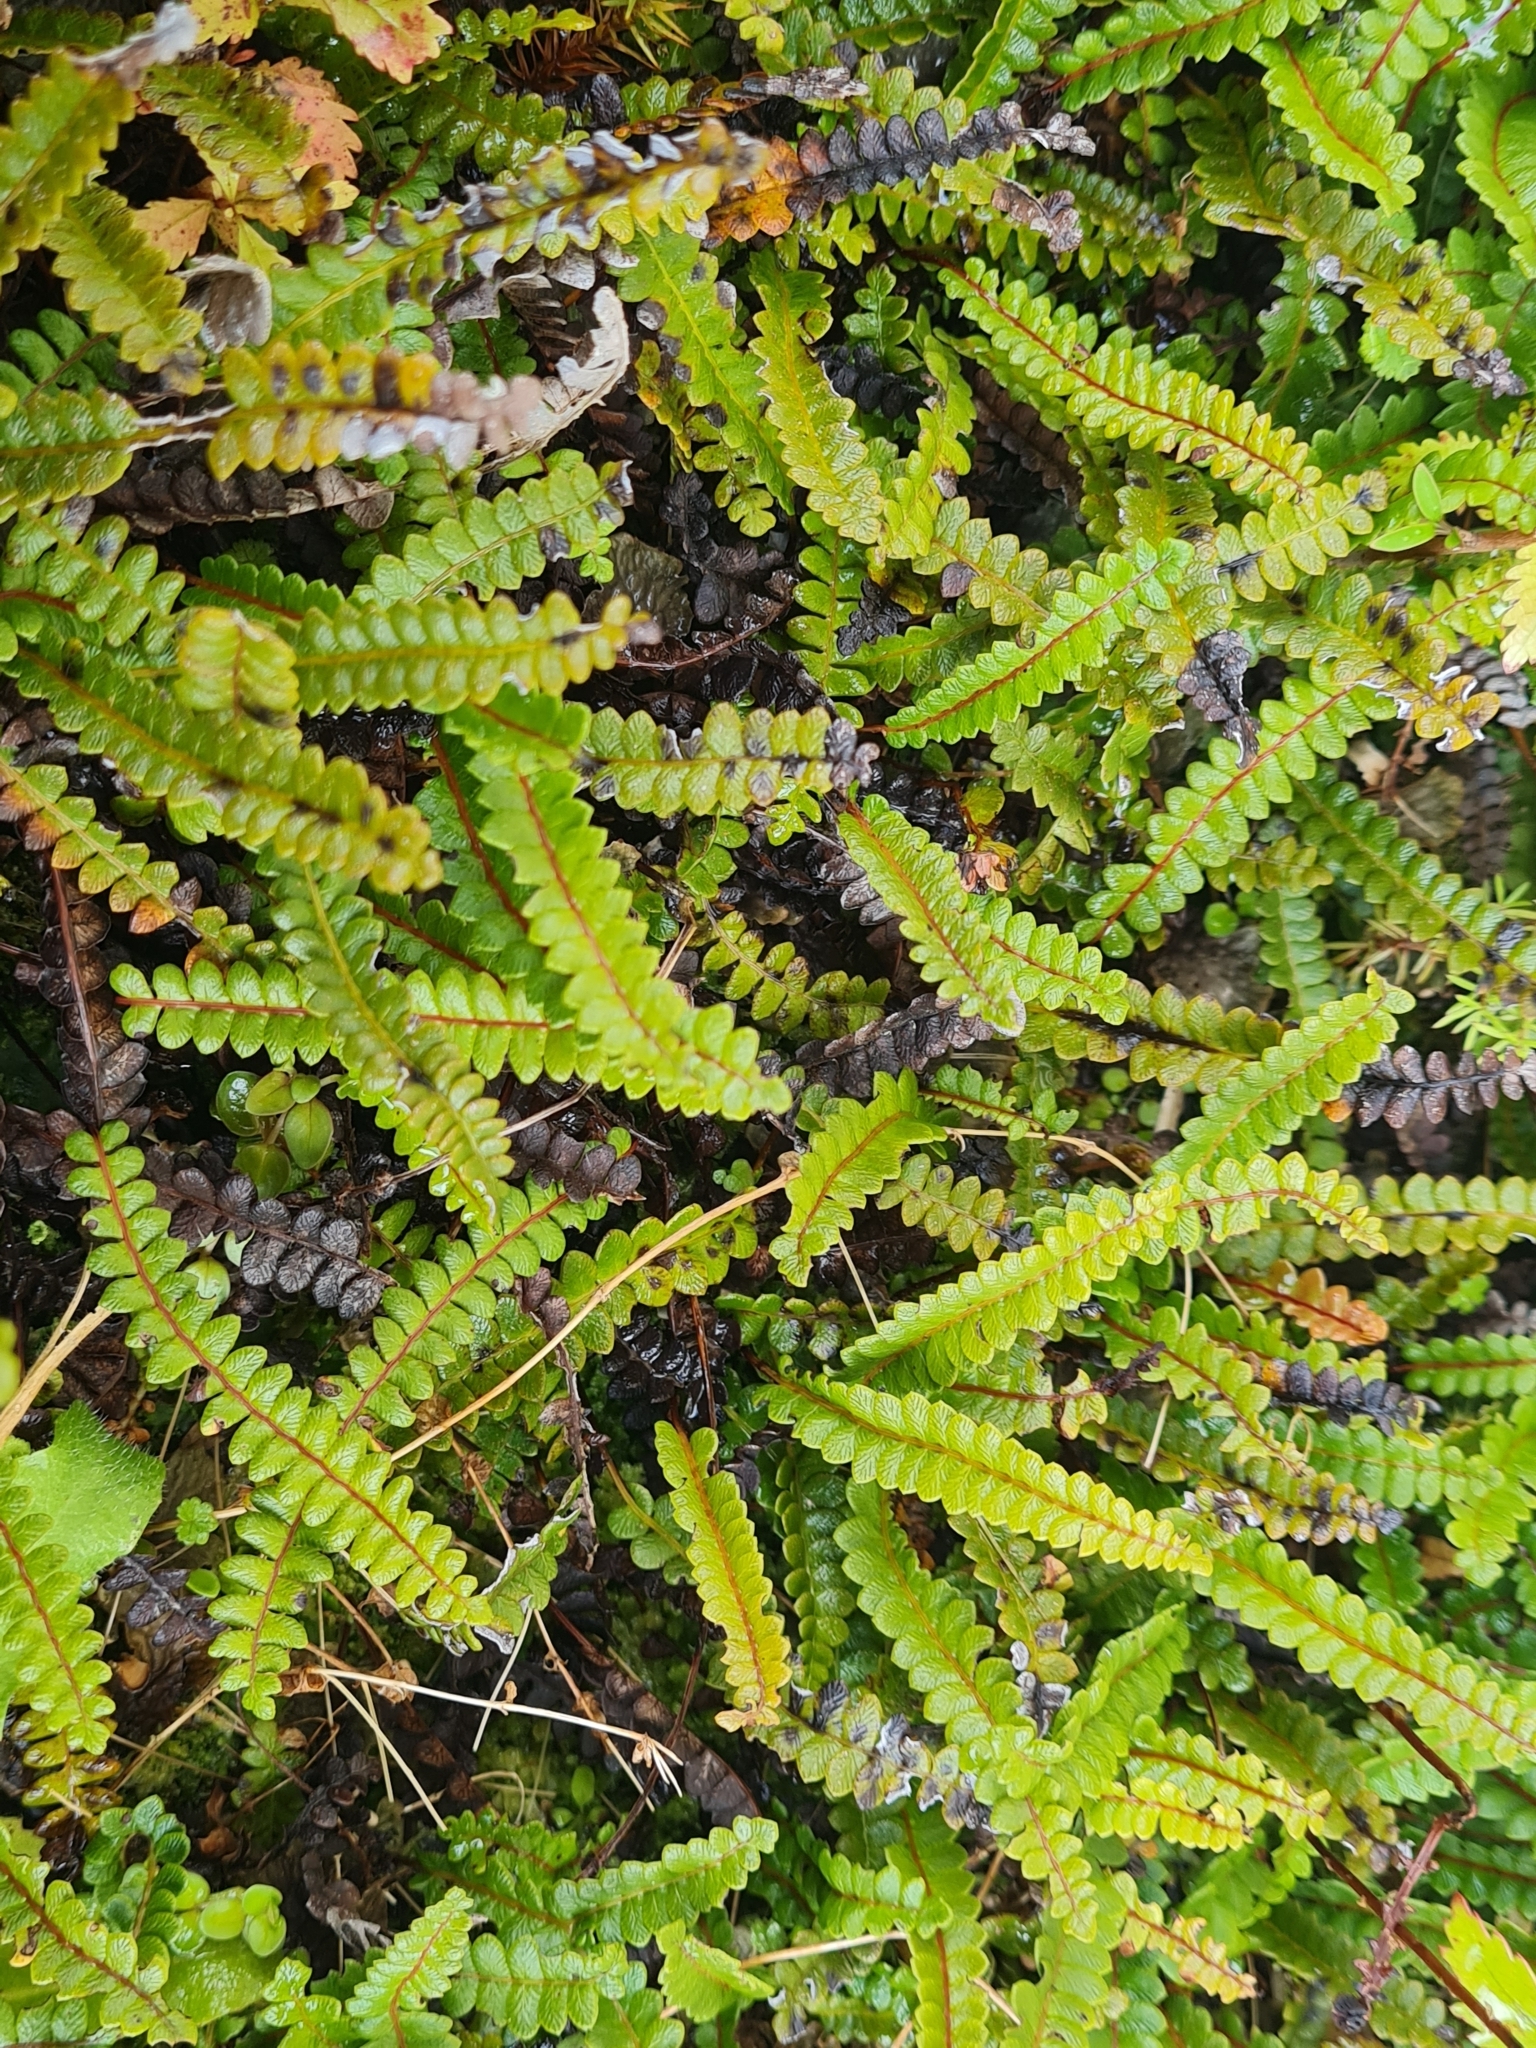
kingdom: Plantae
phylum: Tracheophyta
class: Polypodiopsida
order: Polypodiales
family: Blechnaceae
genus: Austroblechnum
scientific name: Austroblechnum penna-marina
